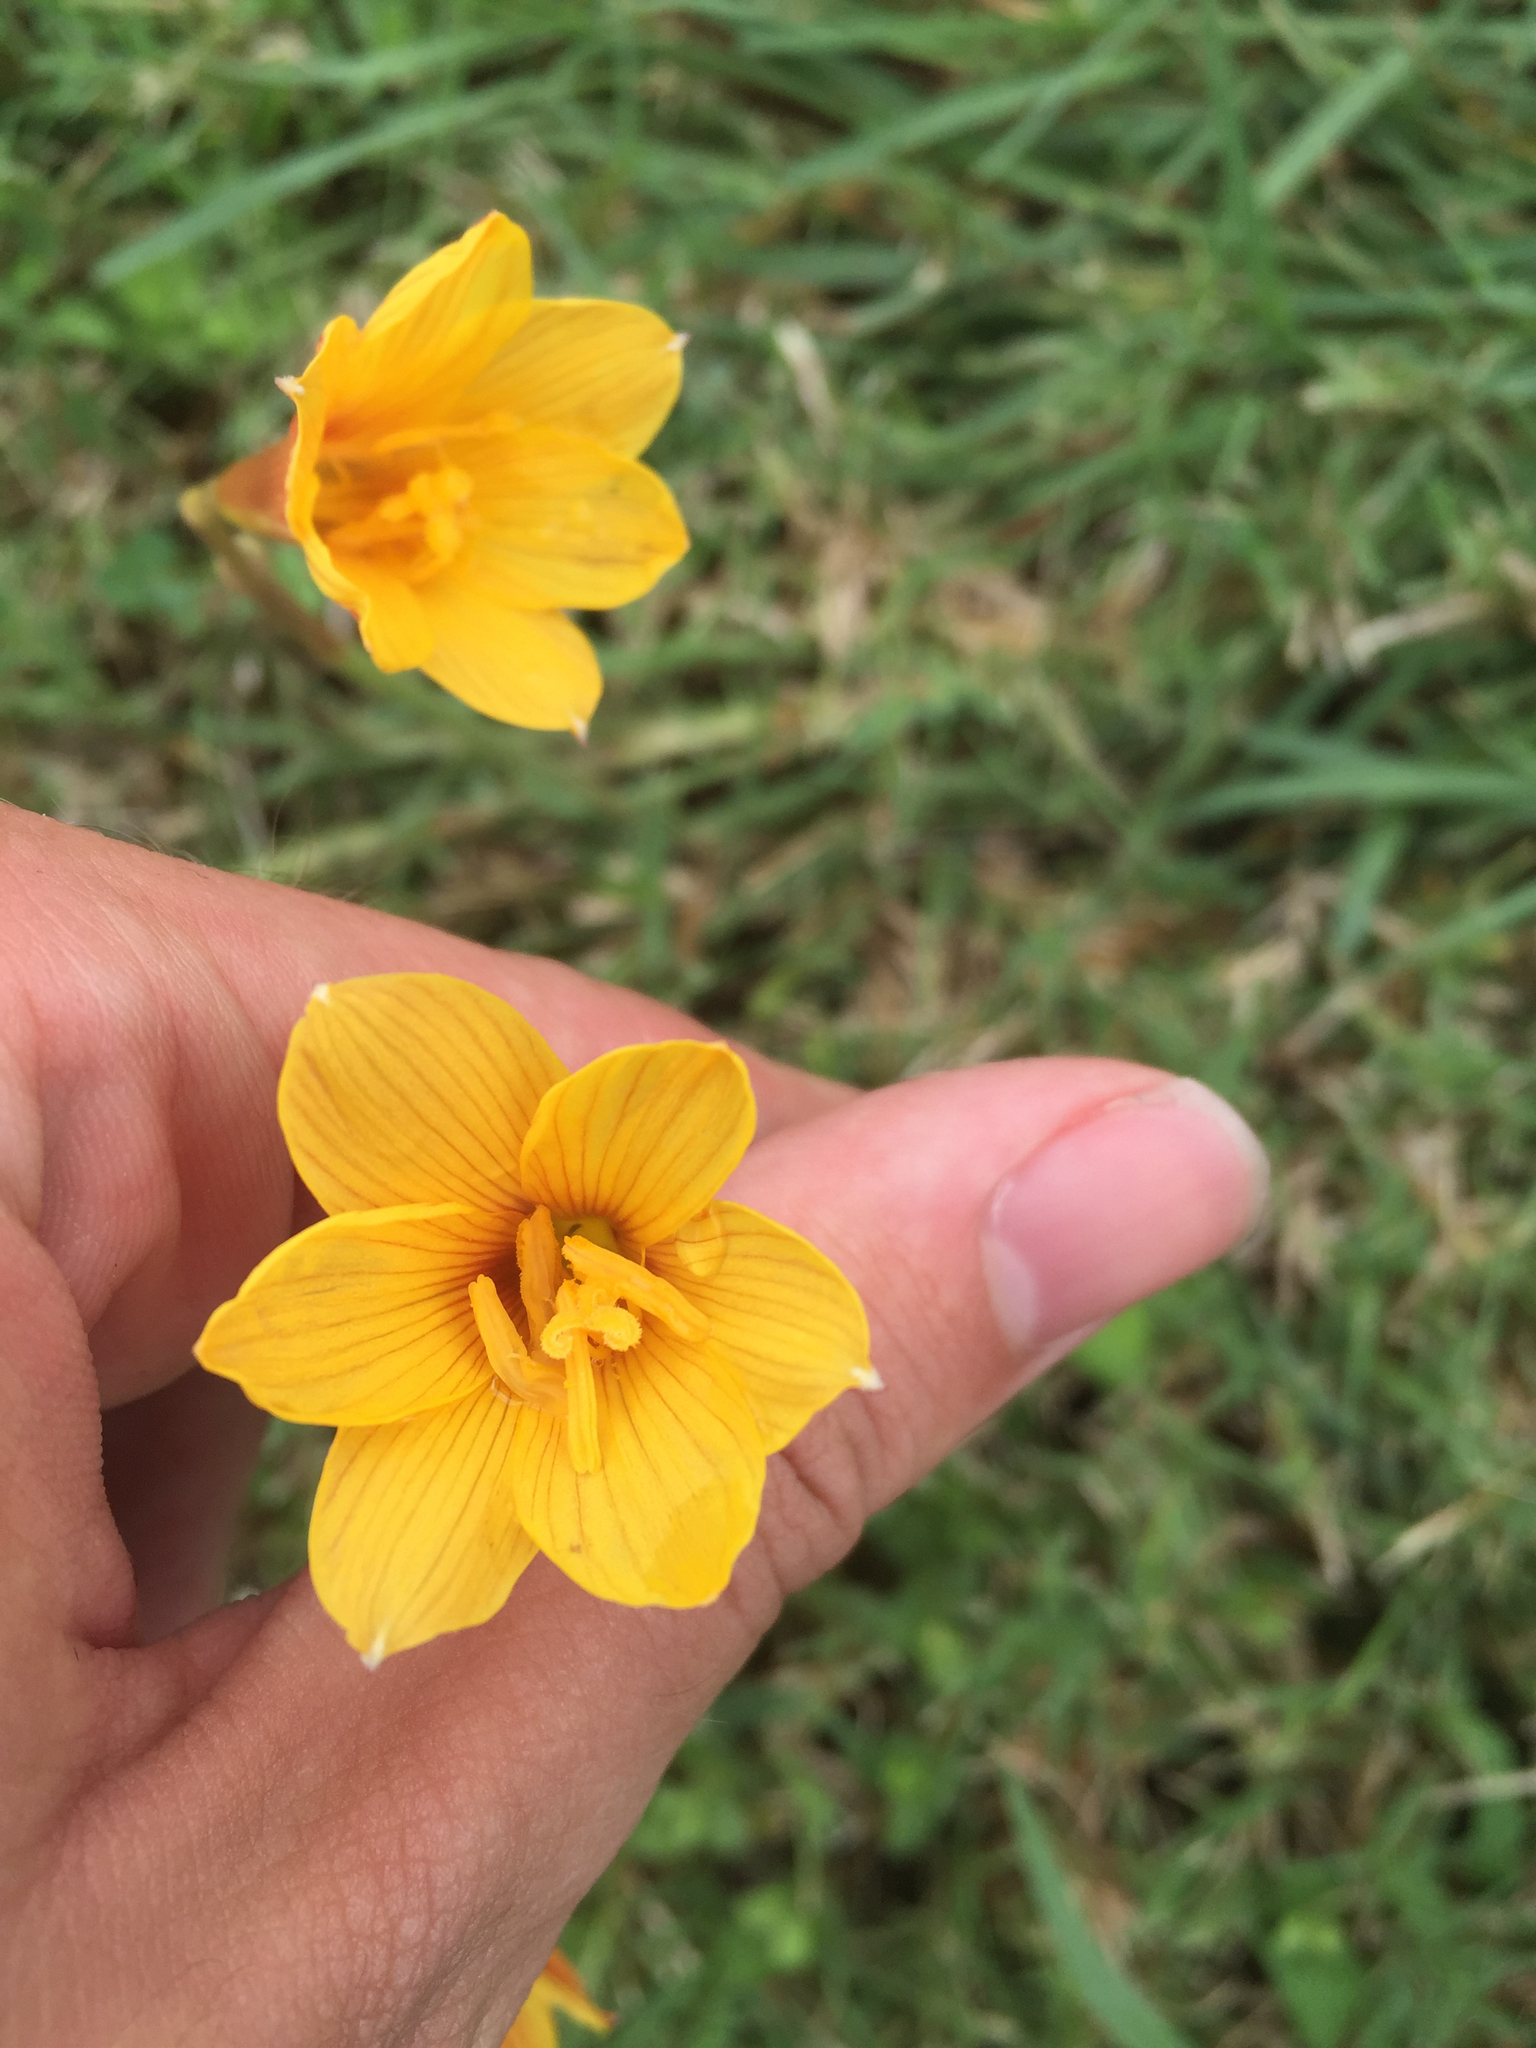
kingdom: Plantae
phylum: Tracheophyta
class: Liliopsida
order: Asparagales
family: Amaryllidaceae
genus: Zephyranthes
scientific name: Zephyranthes tubispatha
